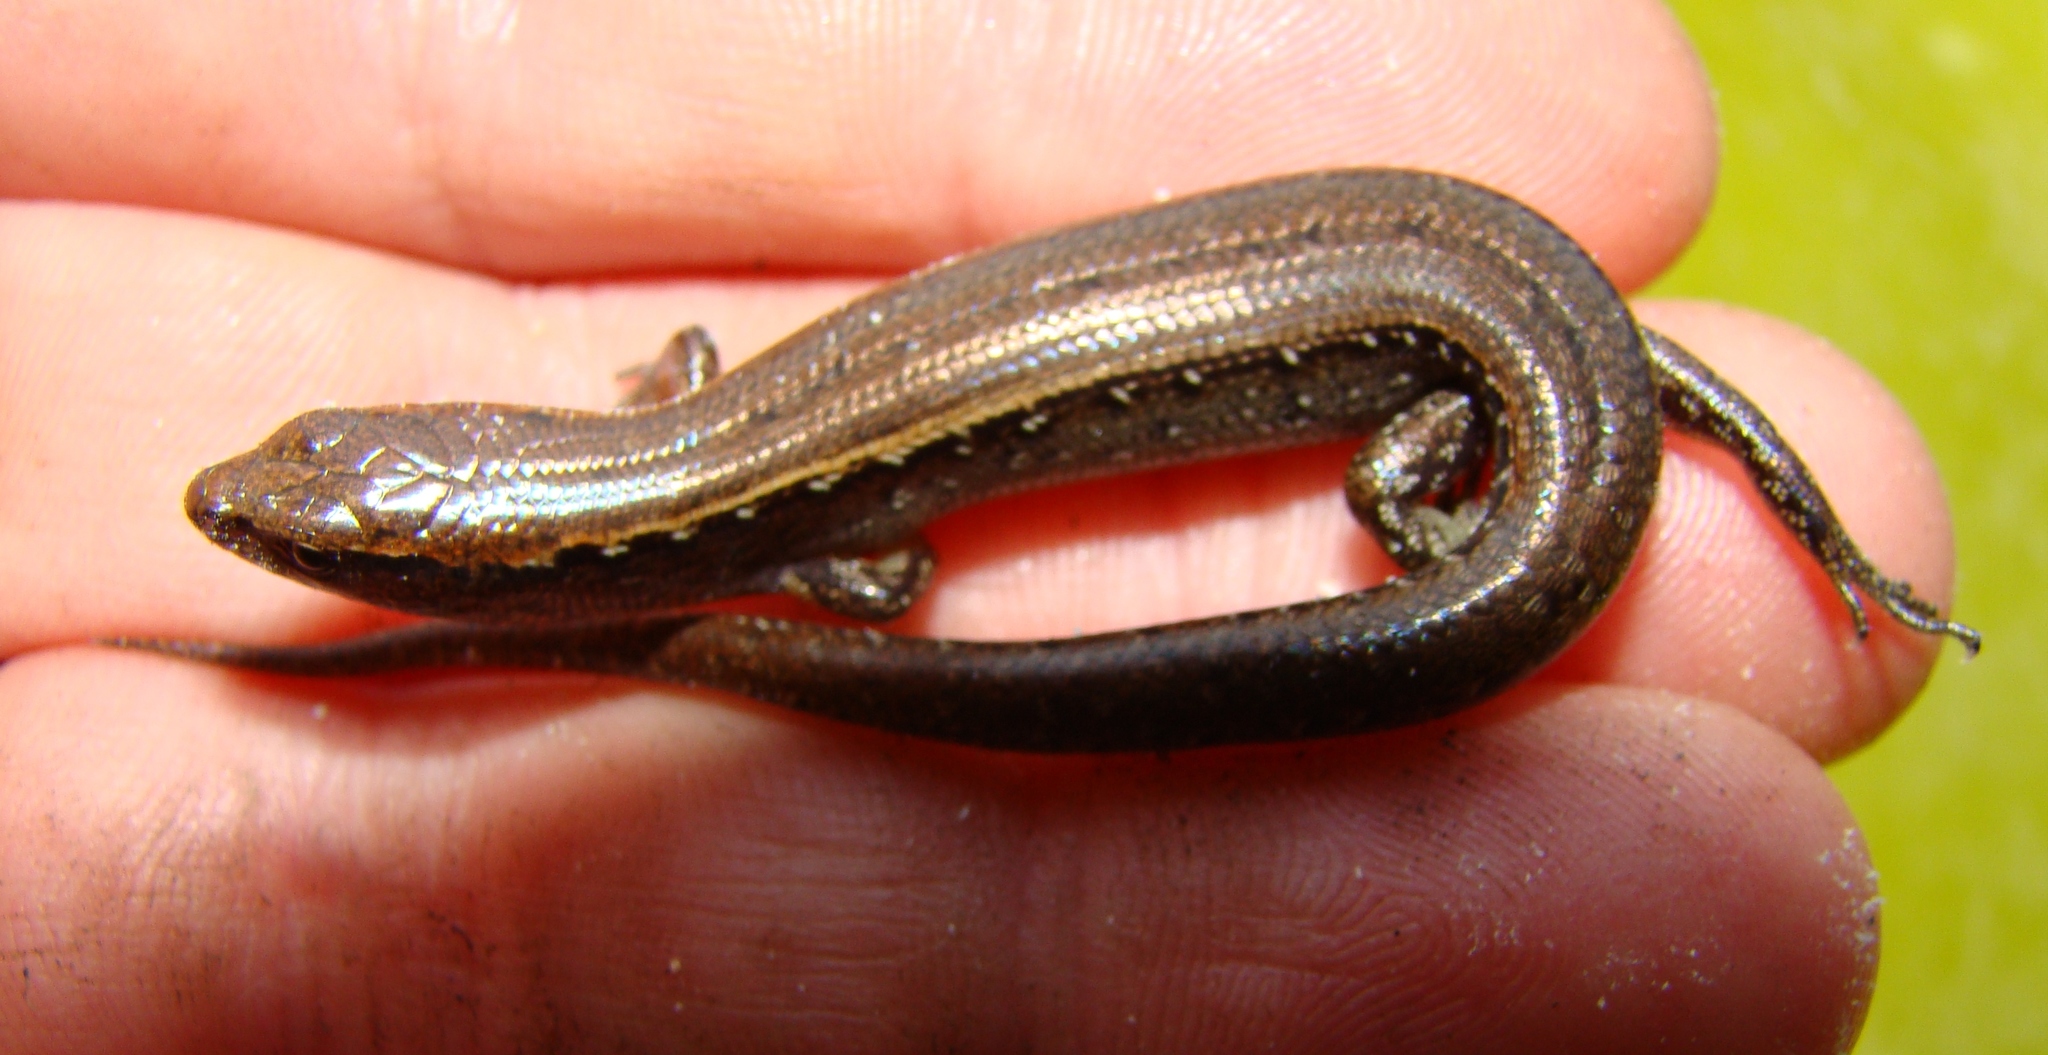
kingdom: Animalia
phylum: Chordata
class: Squamata
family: Scincidae
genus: Oligosoma
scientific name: Oligosoma aeneum
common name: Copper skink
